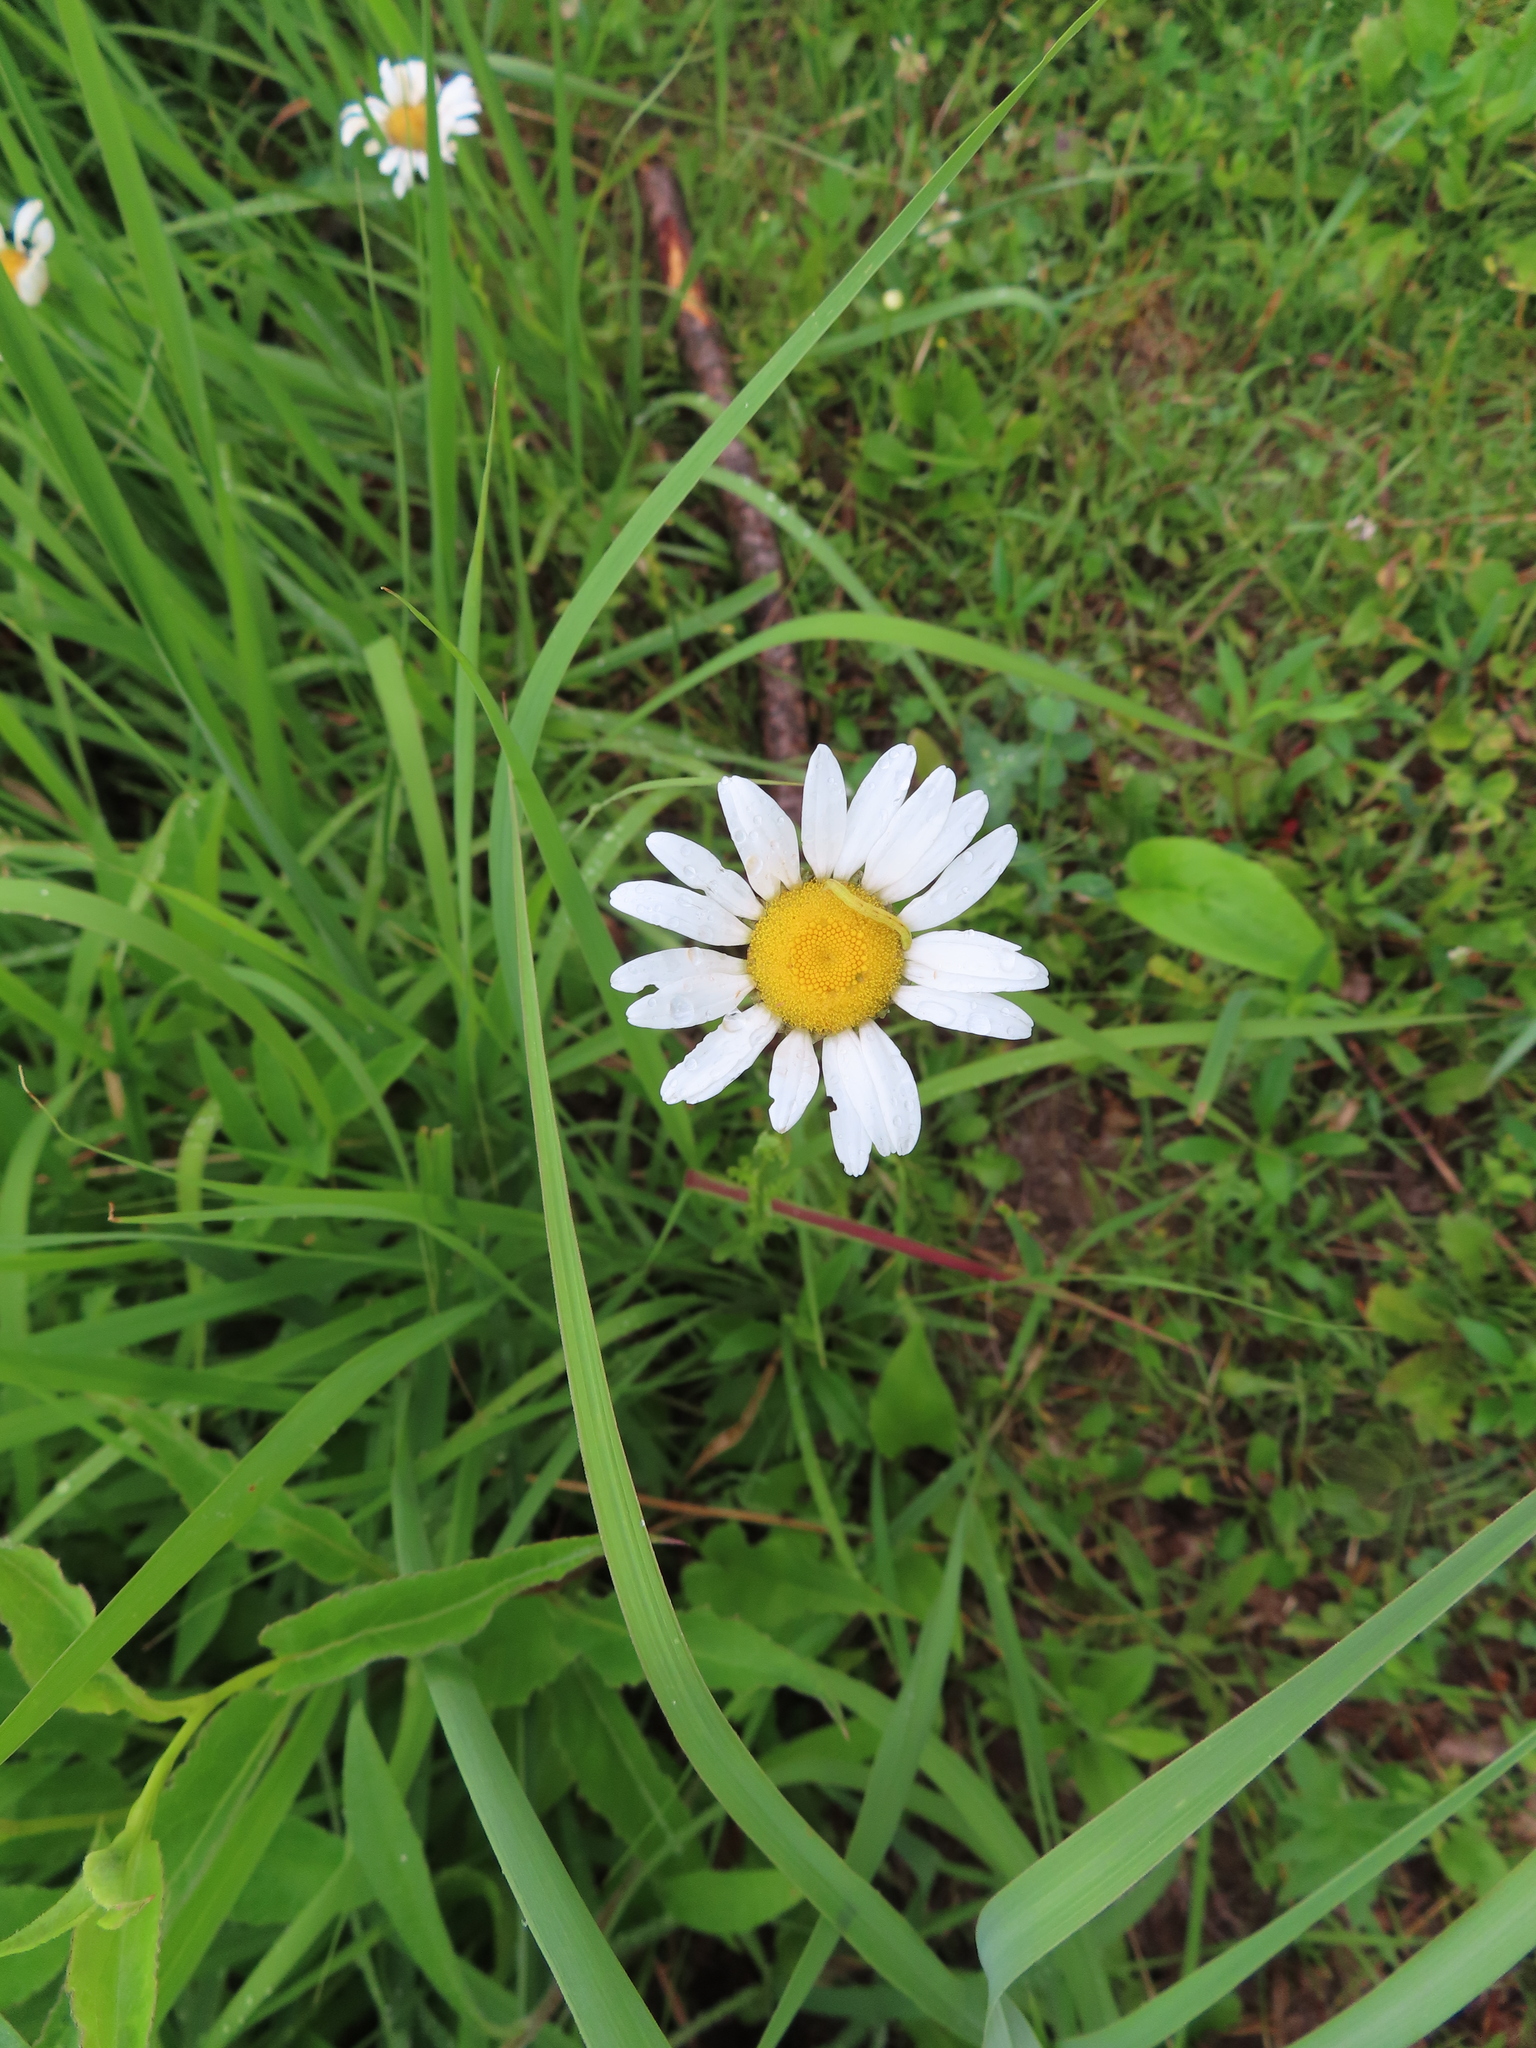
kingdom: Plantae
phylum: Tracheophyta
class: Magnoliopsida
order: Asterales
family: Asteraceae
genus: Leucanthemum
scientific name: Leucanthemum vulgare
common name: Oxeye daisy
